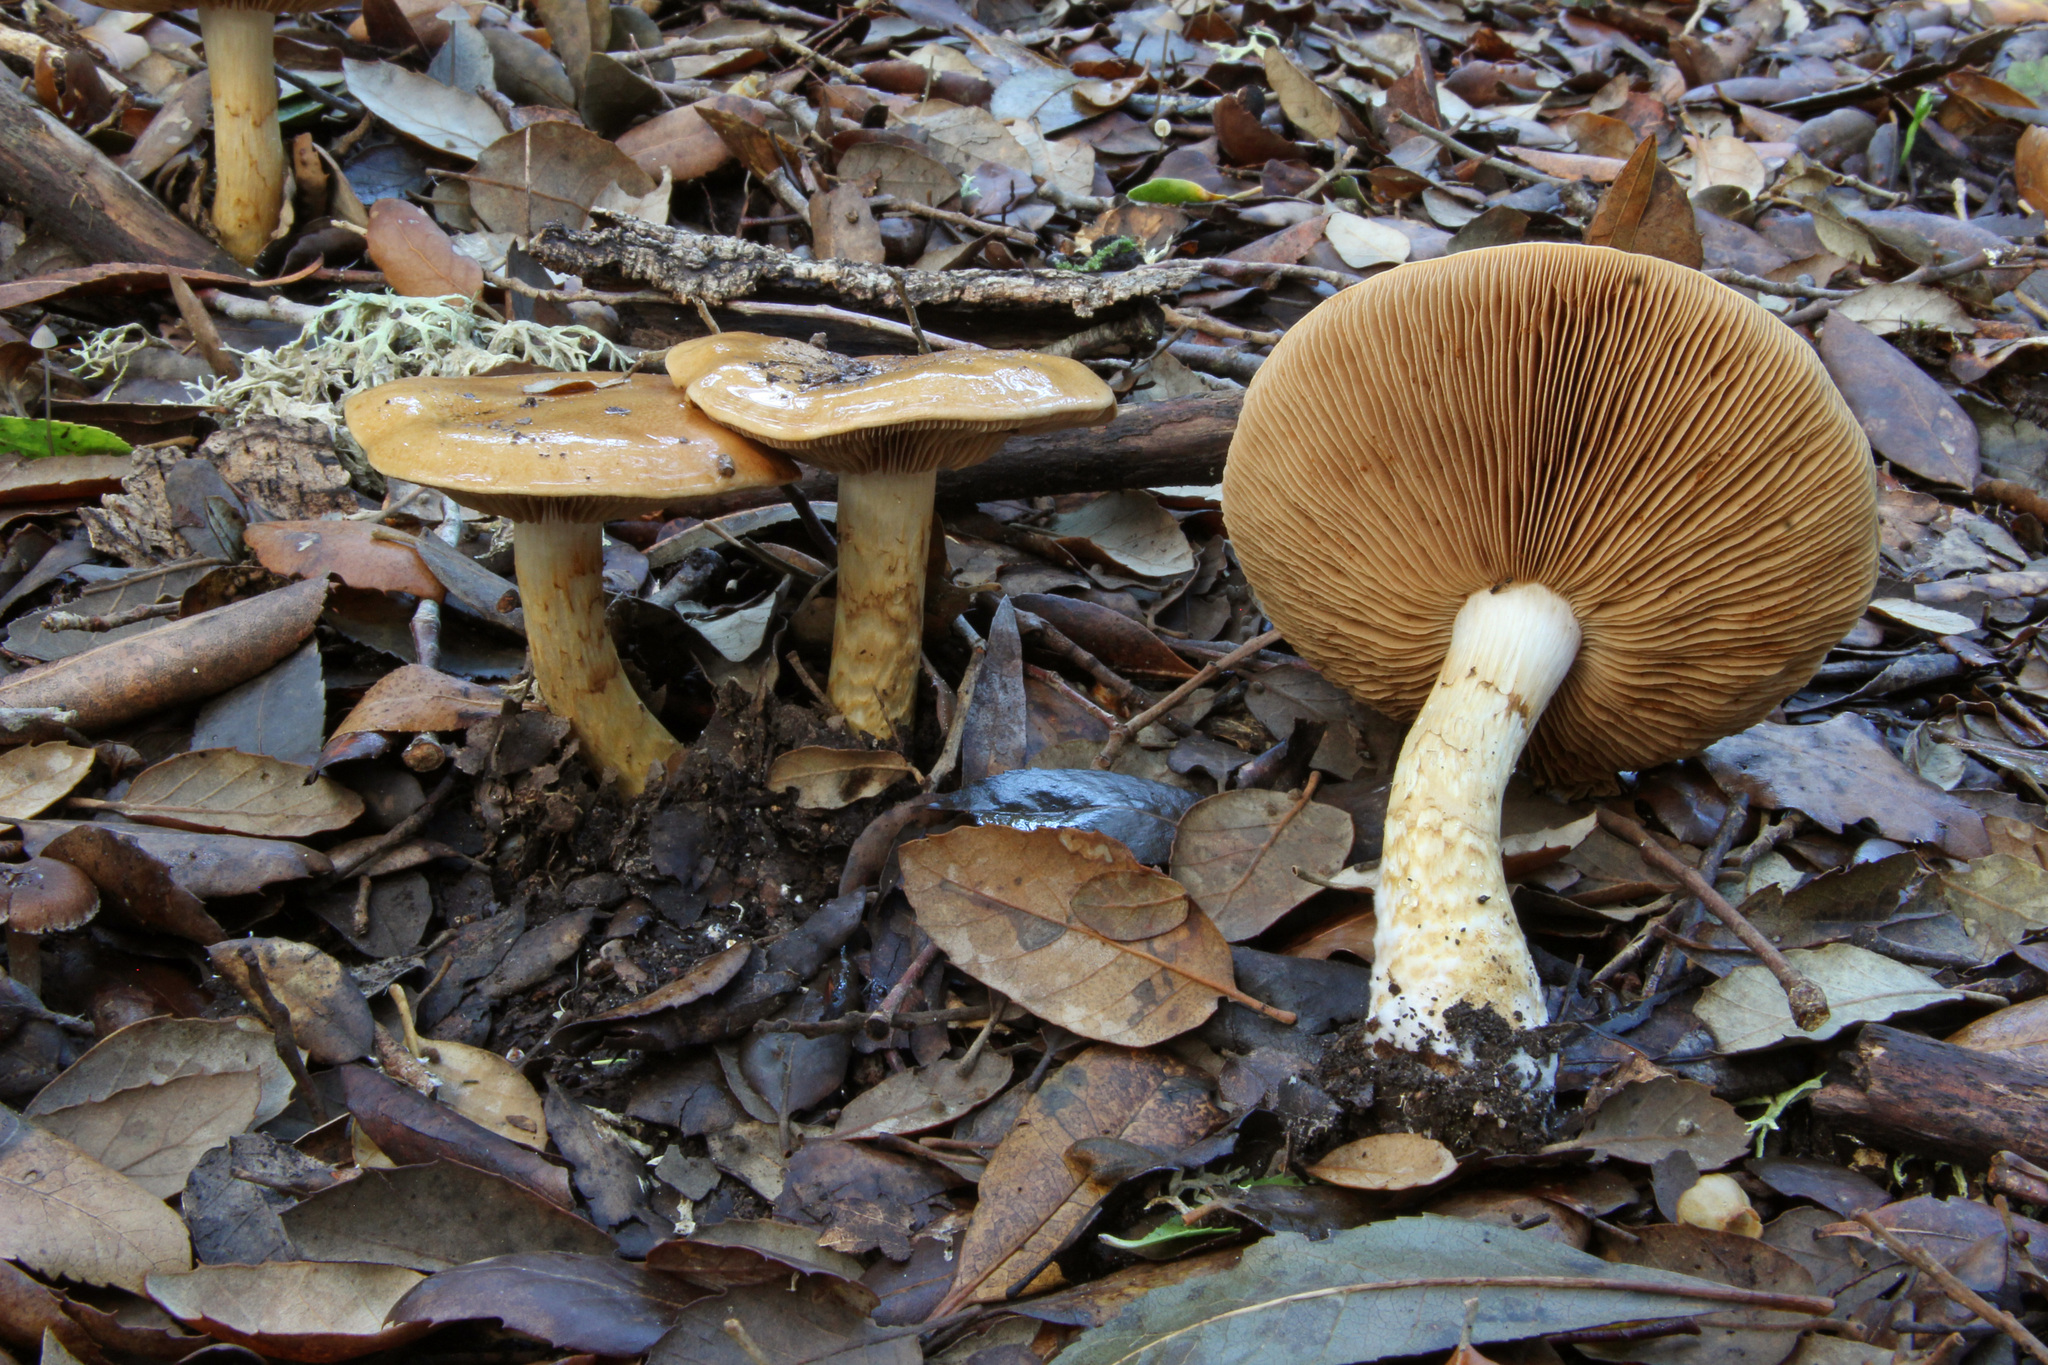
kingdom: Fungi
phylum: Basidiomycota
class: Agaricomycetes
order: Agaricales
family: Cortinariaceae
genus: Cortinarius
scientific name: Cortinarius olidus
